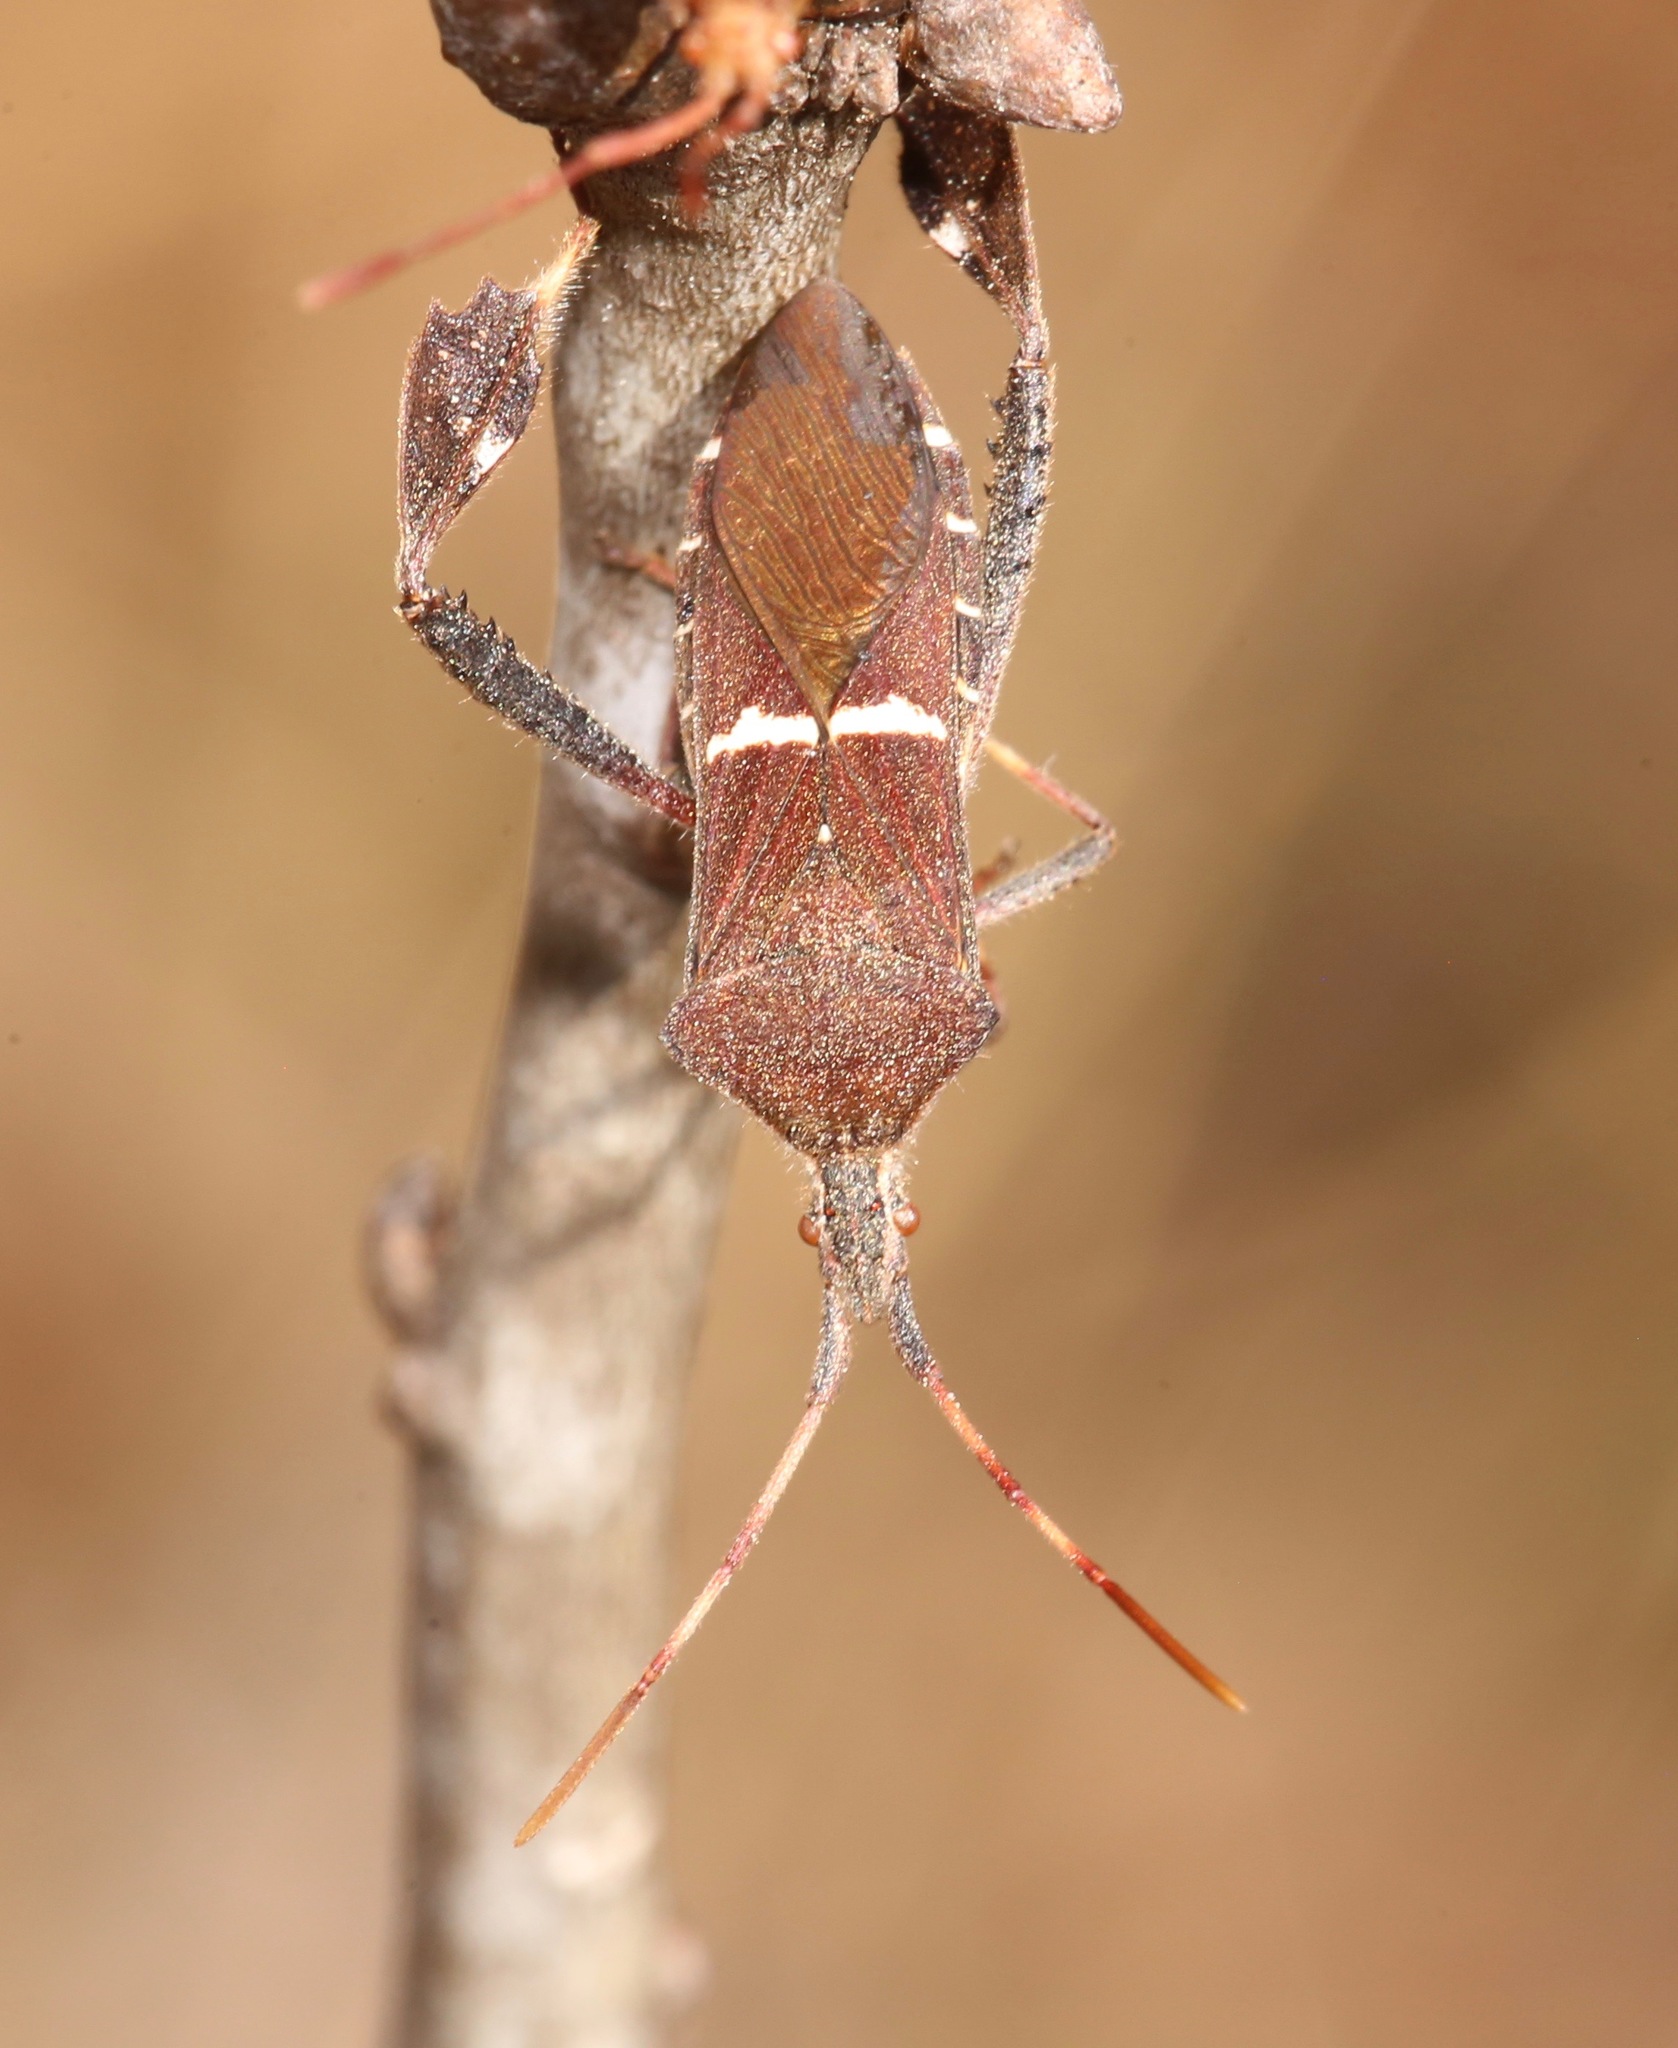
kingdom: Animalia
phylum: Arthropoda
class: Insecta
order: Hemiptera
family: Coreidae
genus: Leptoglossus
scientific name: Leptoglossus phyllopus
